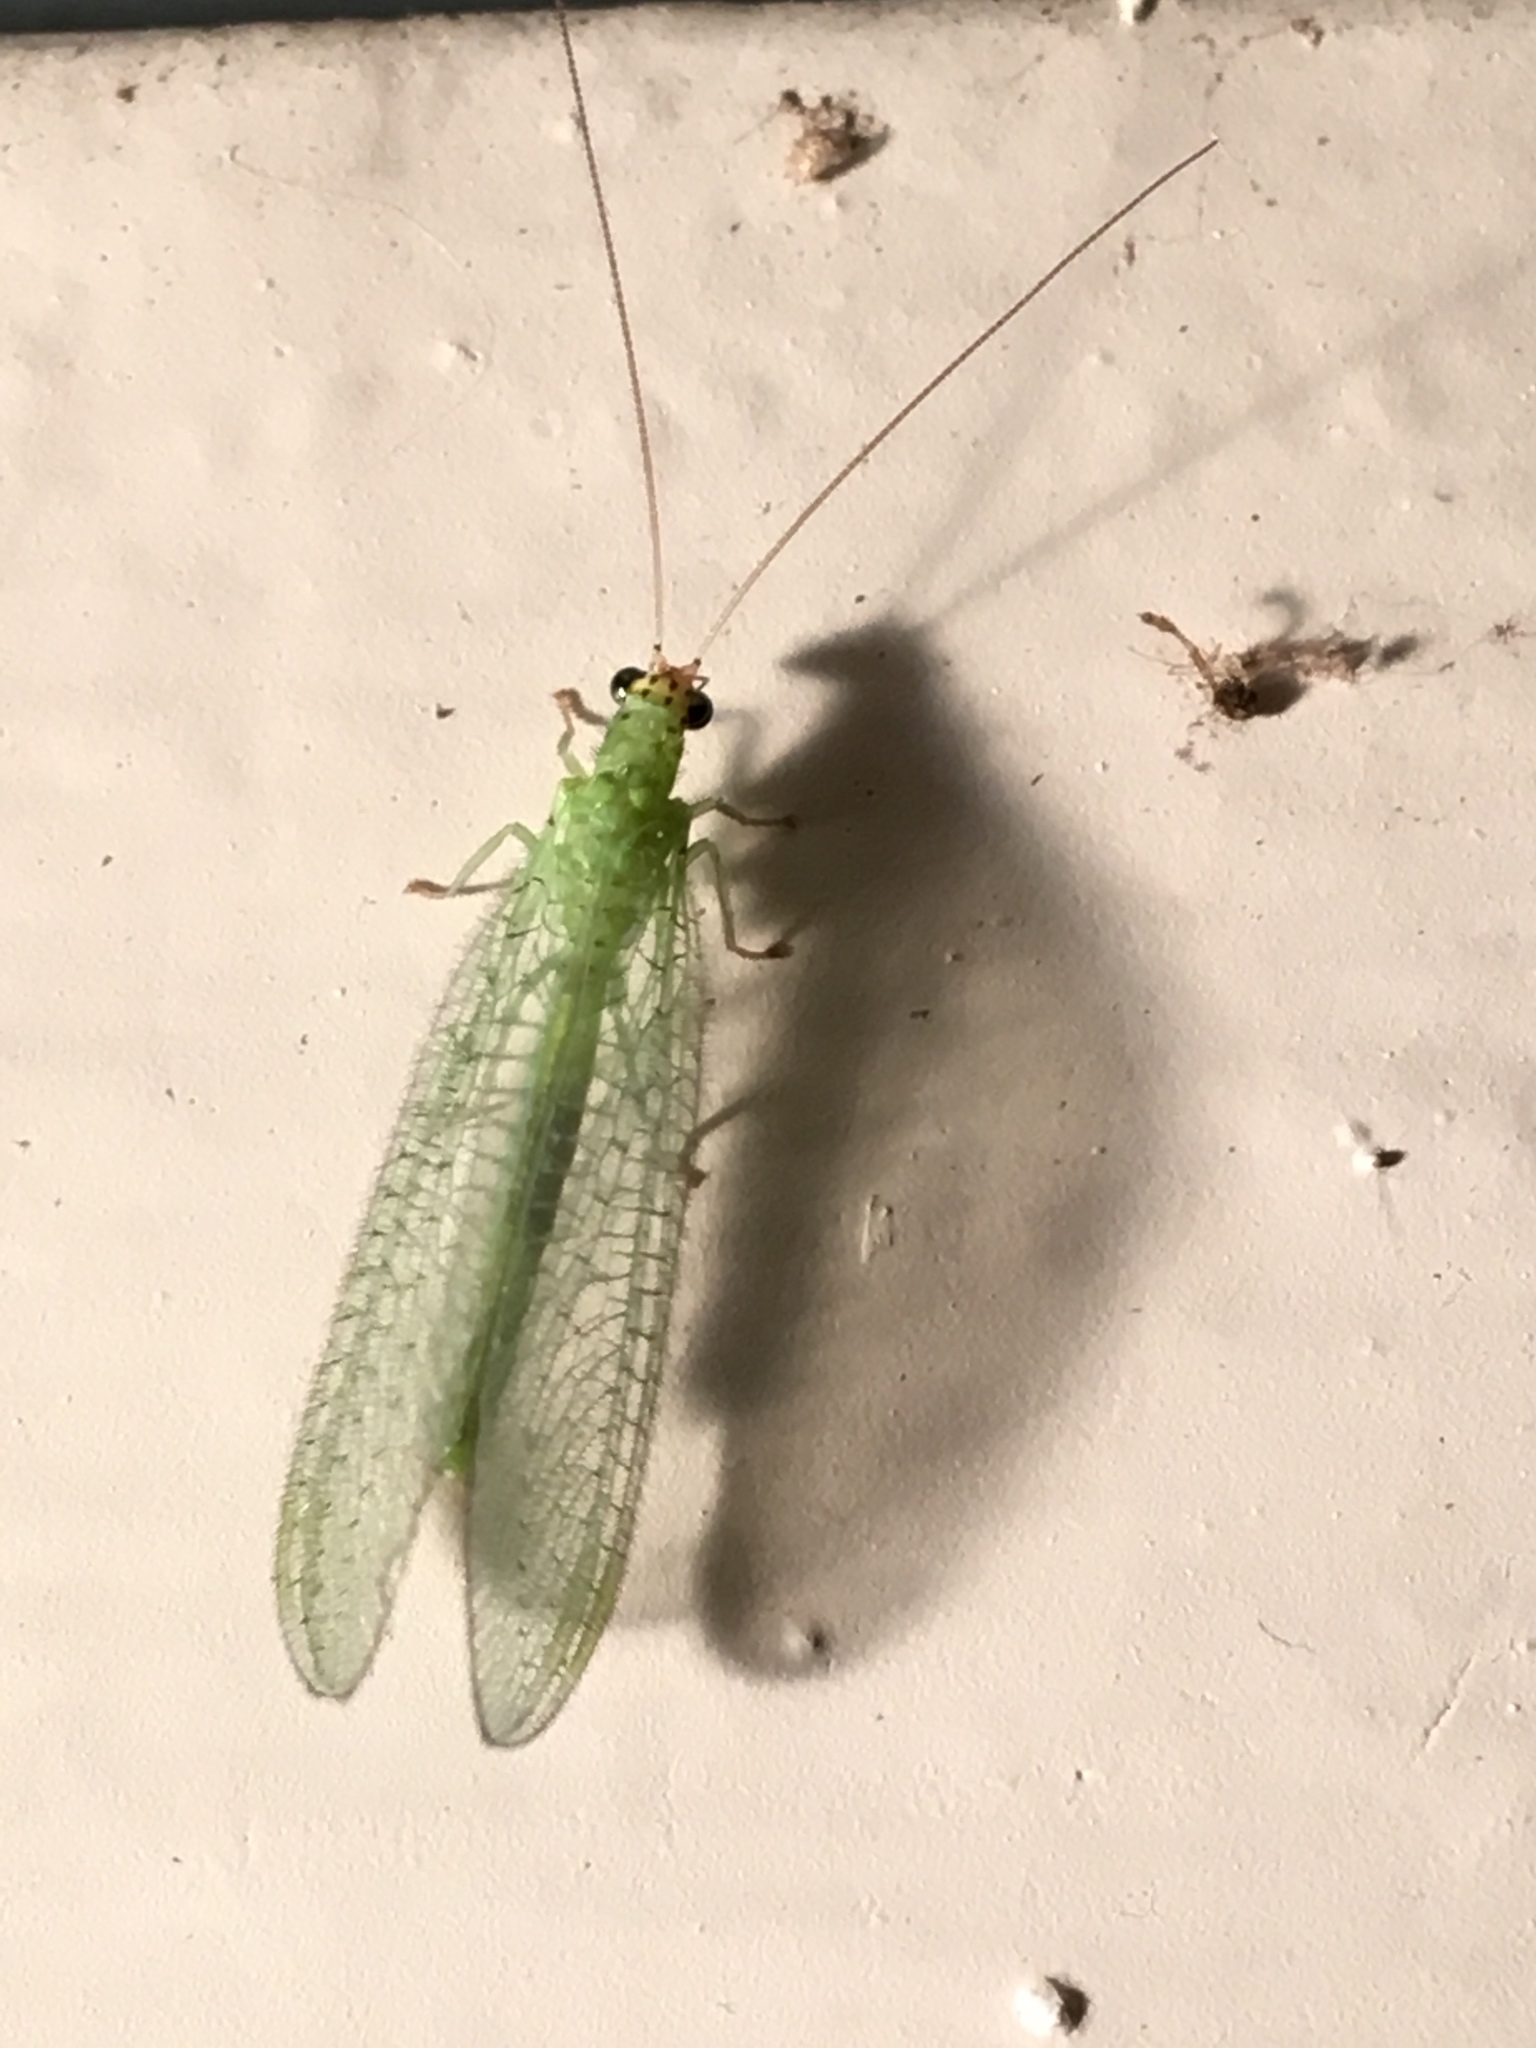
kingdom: Animalia
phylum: Arthropoda
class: Insecta
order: Neuroptera
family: Chrysopidae
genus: Chrysopa
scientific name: Chrysopa oculata
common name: Golden-eyed lacewing
